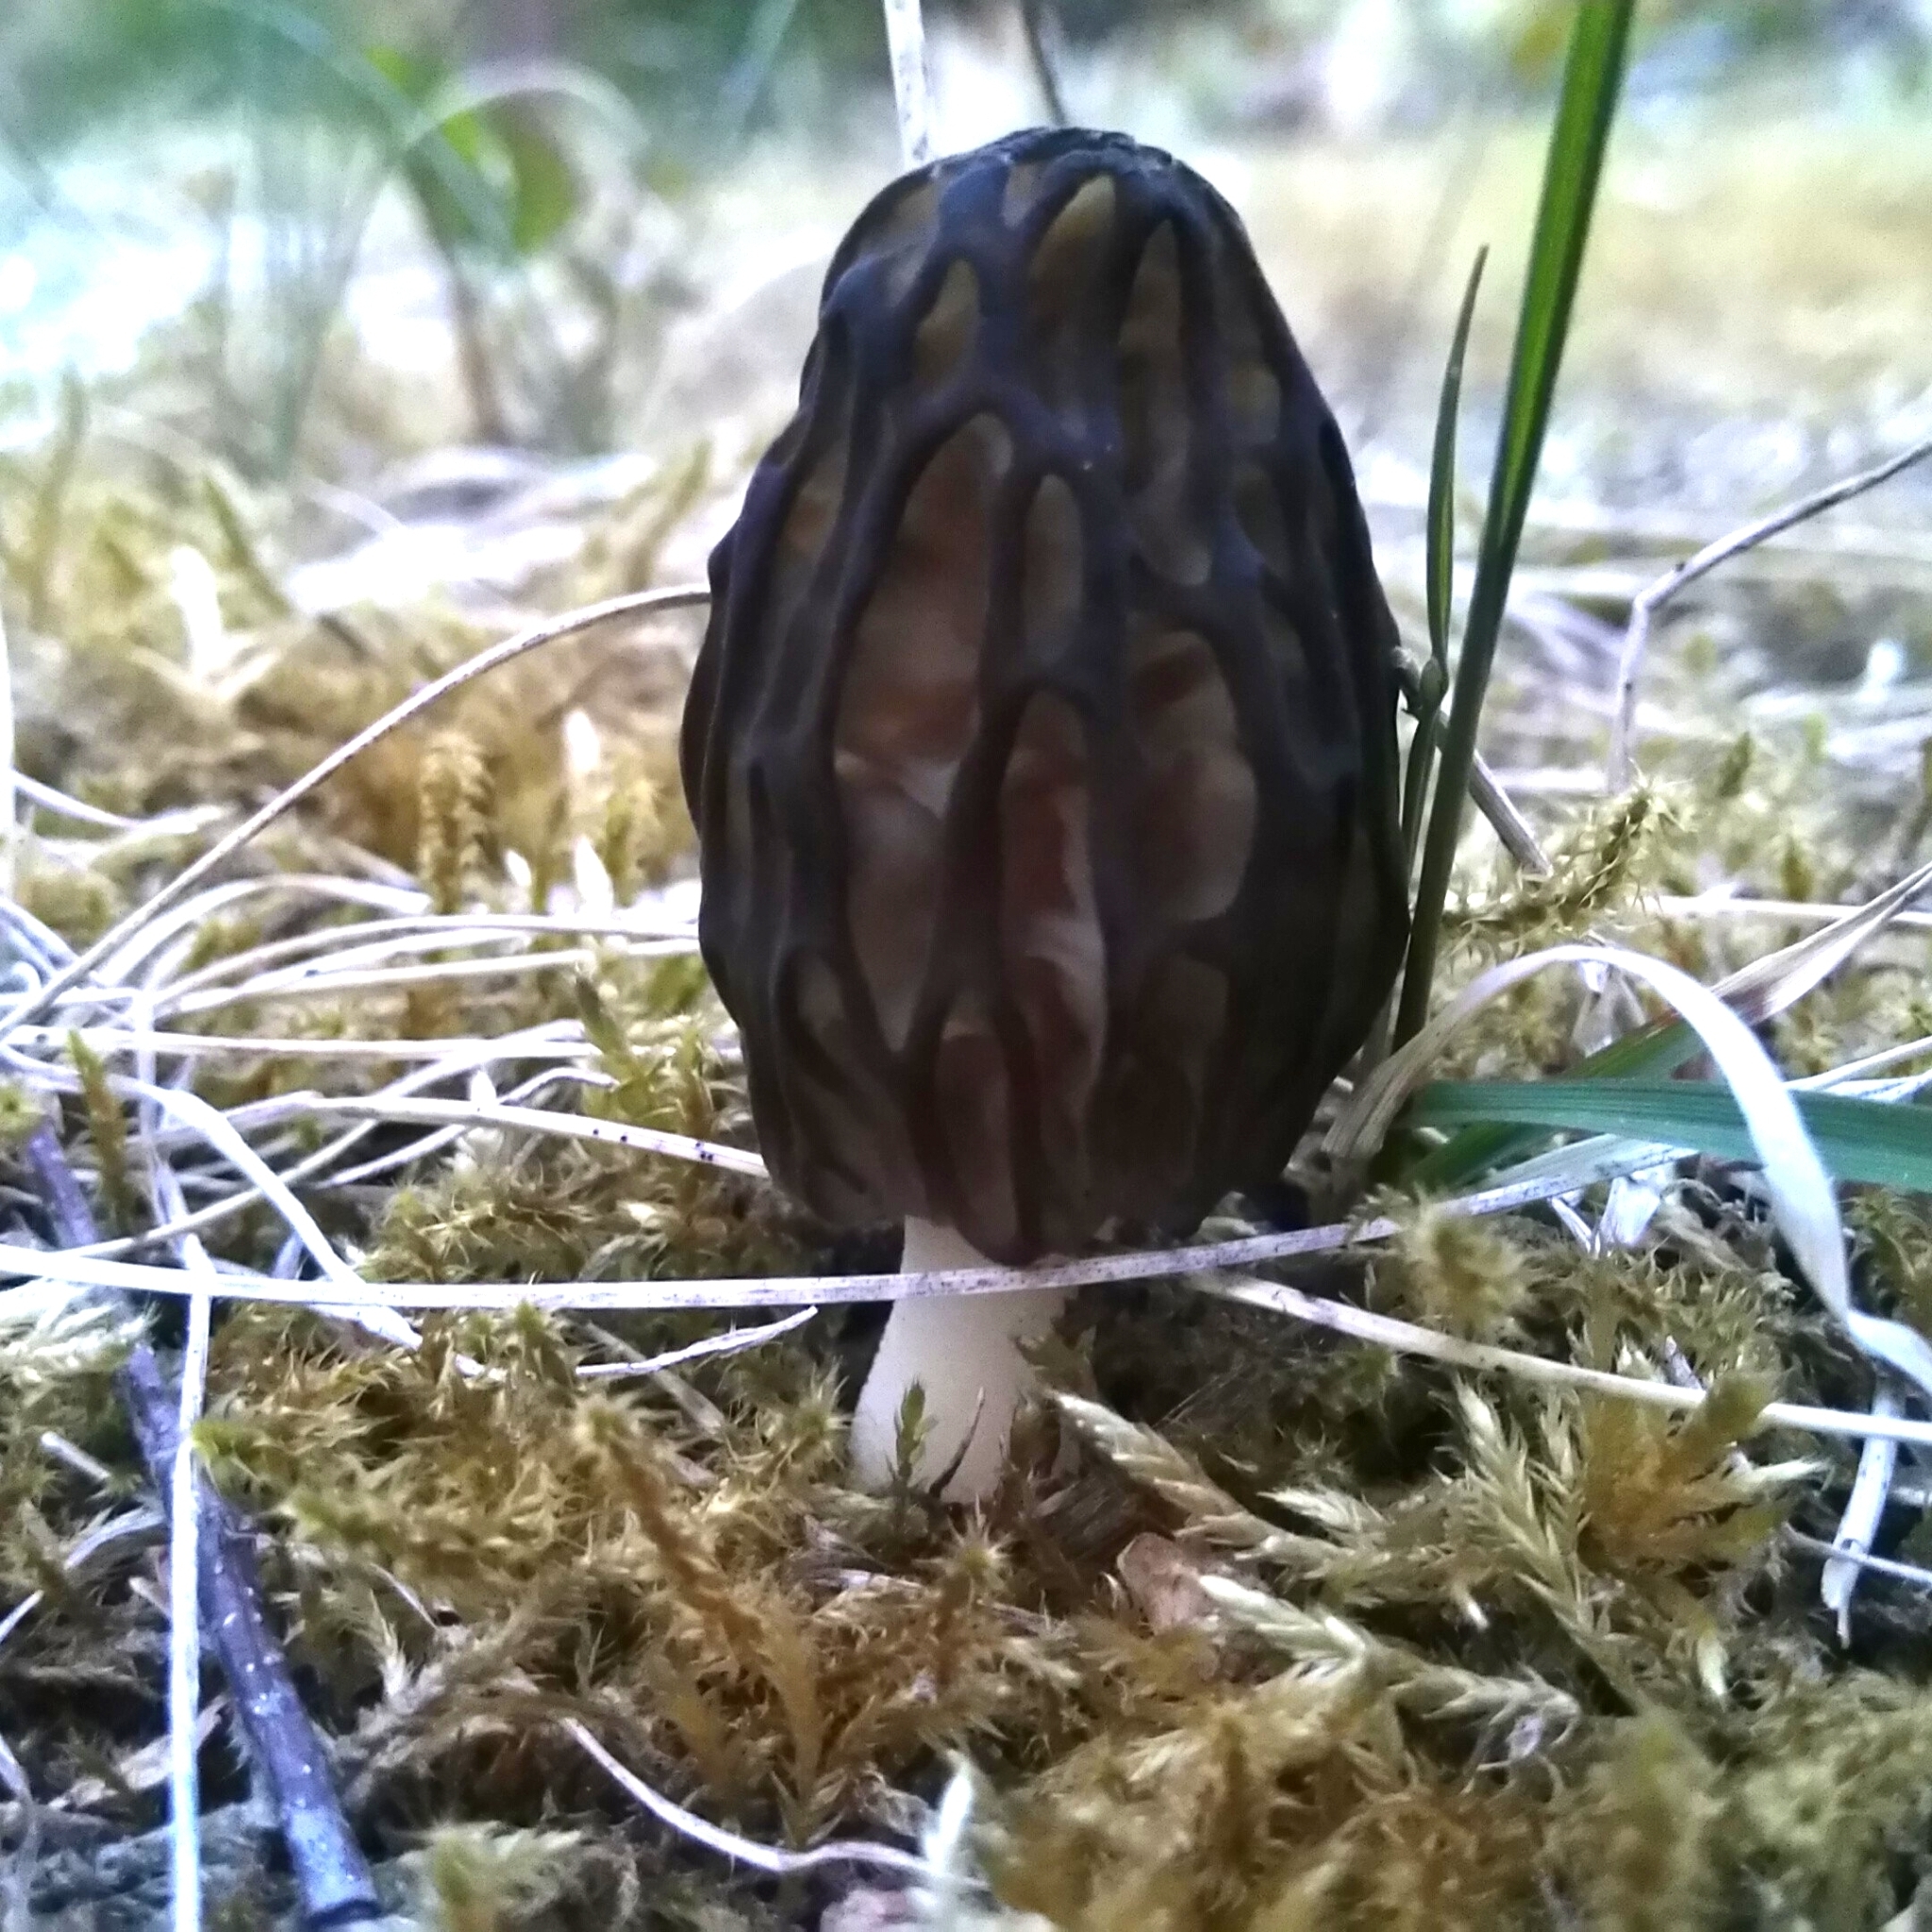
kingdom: Fungi
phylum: Ascomycota
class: Pezizomycetes
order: Pezizales
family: Morchellaceae
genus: Morchella
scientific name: Morchella
